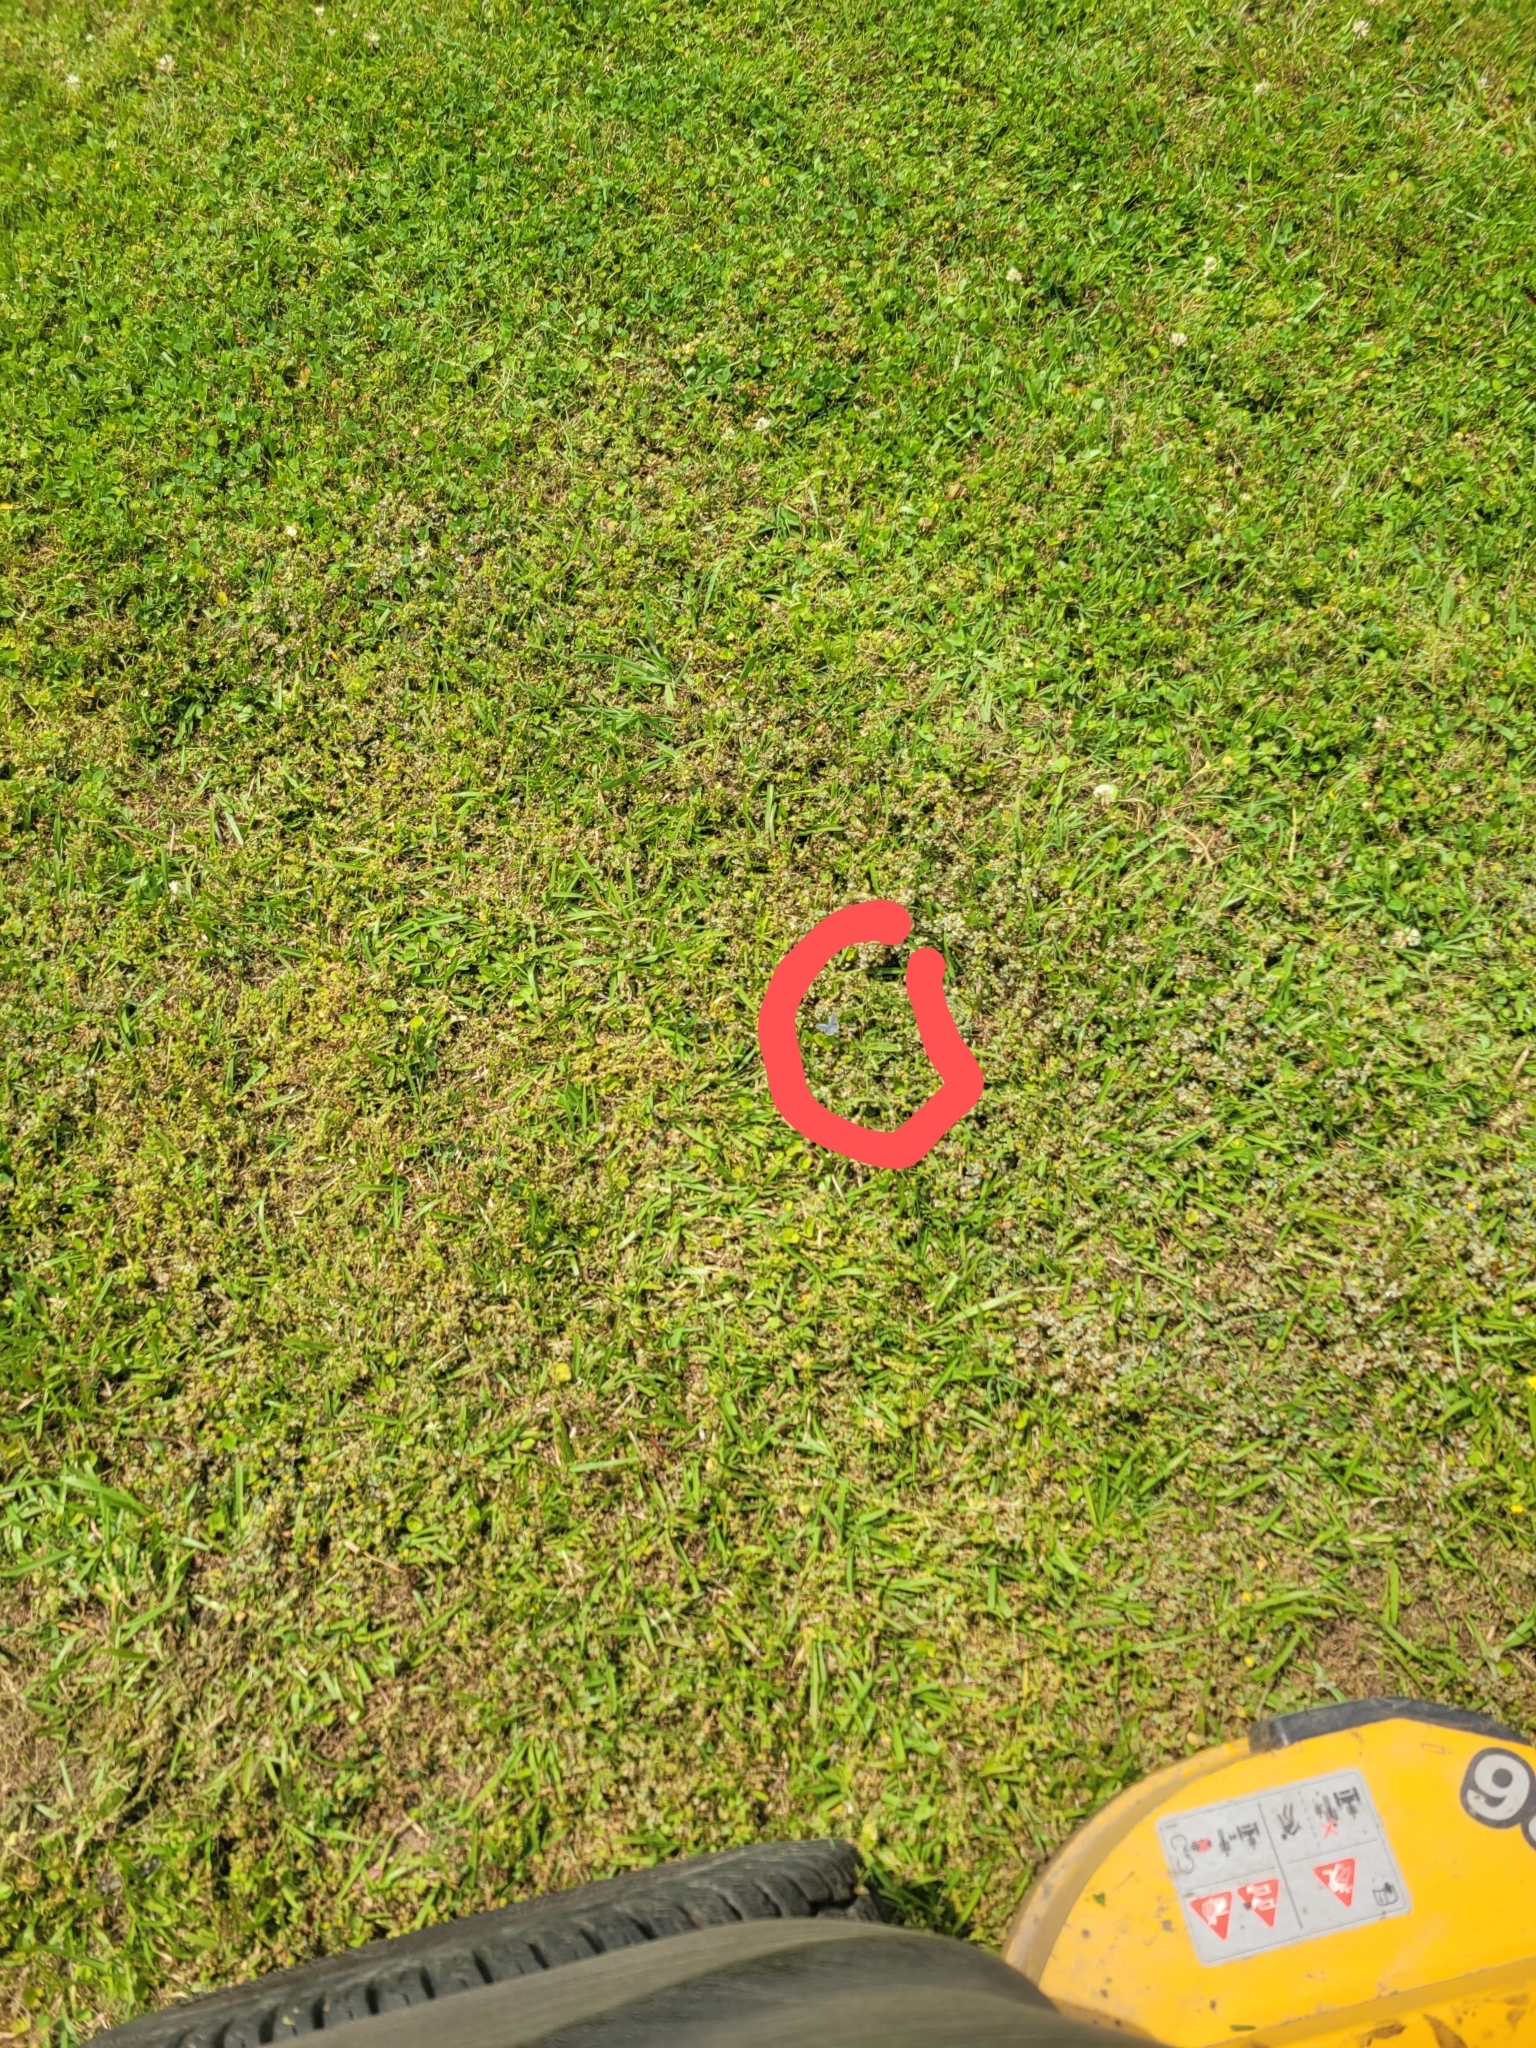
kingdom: Animalia
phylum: Arthropoda
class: Insecta
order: Lepidoptera
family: Lycaenidae
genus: Elkalyce
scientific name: Elkalyce comyntas
